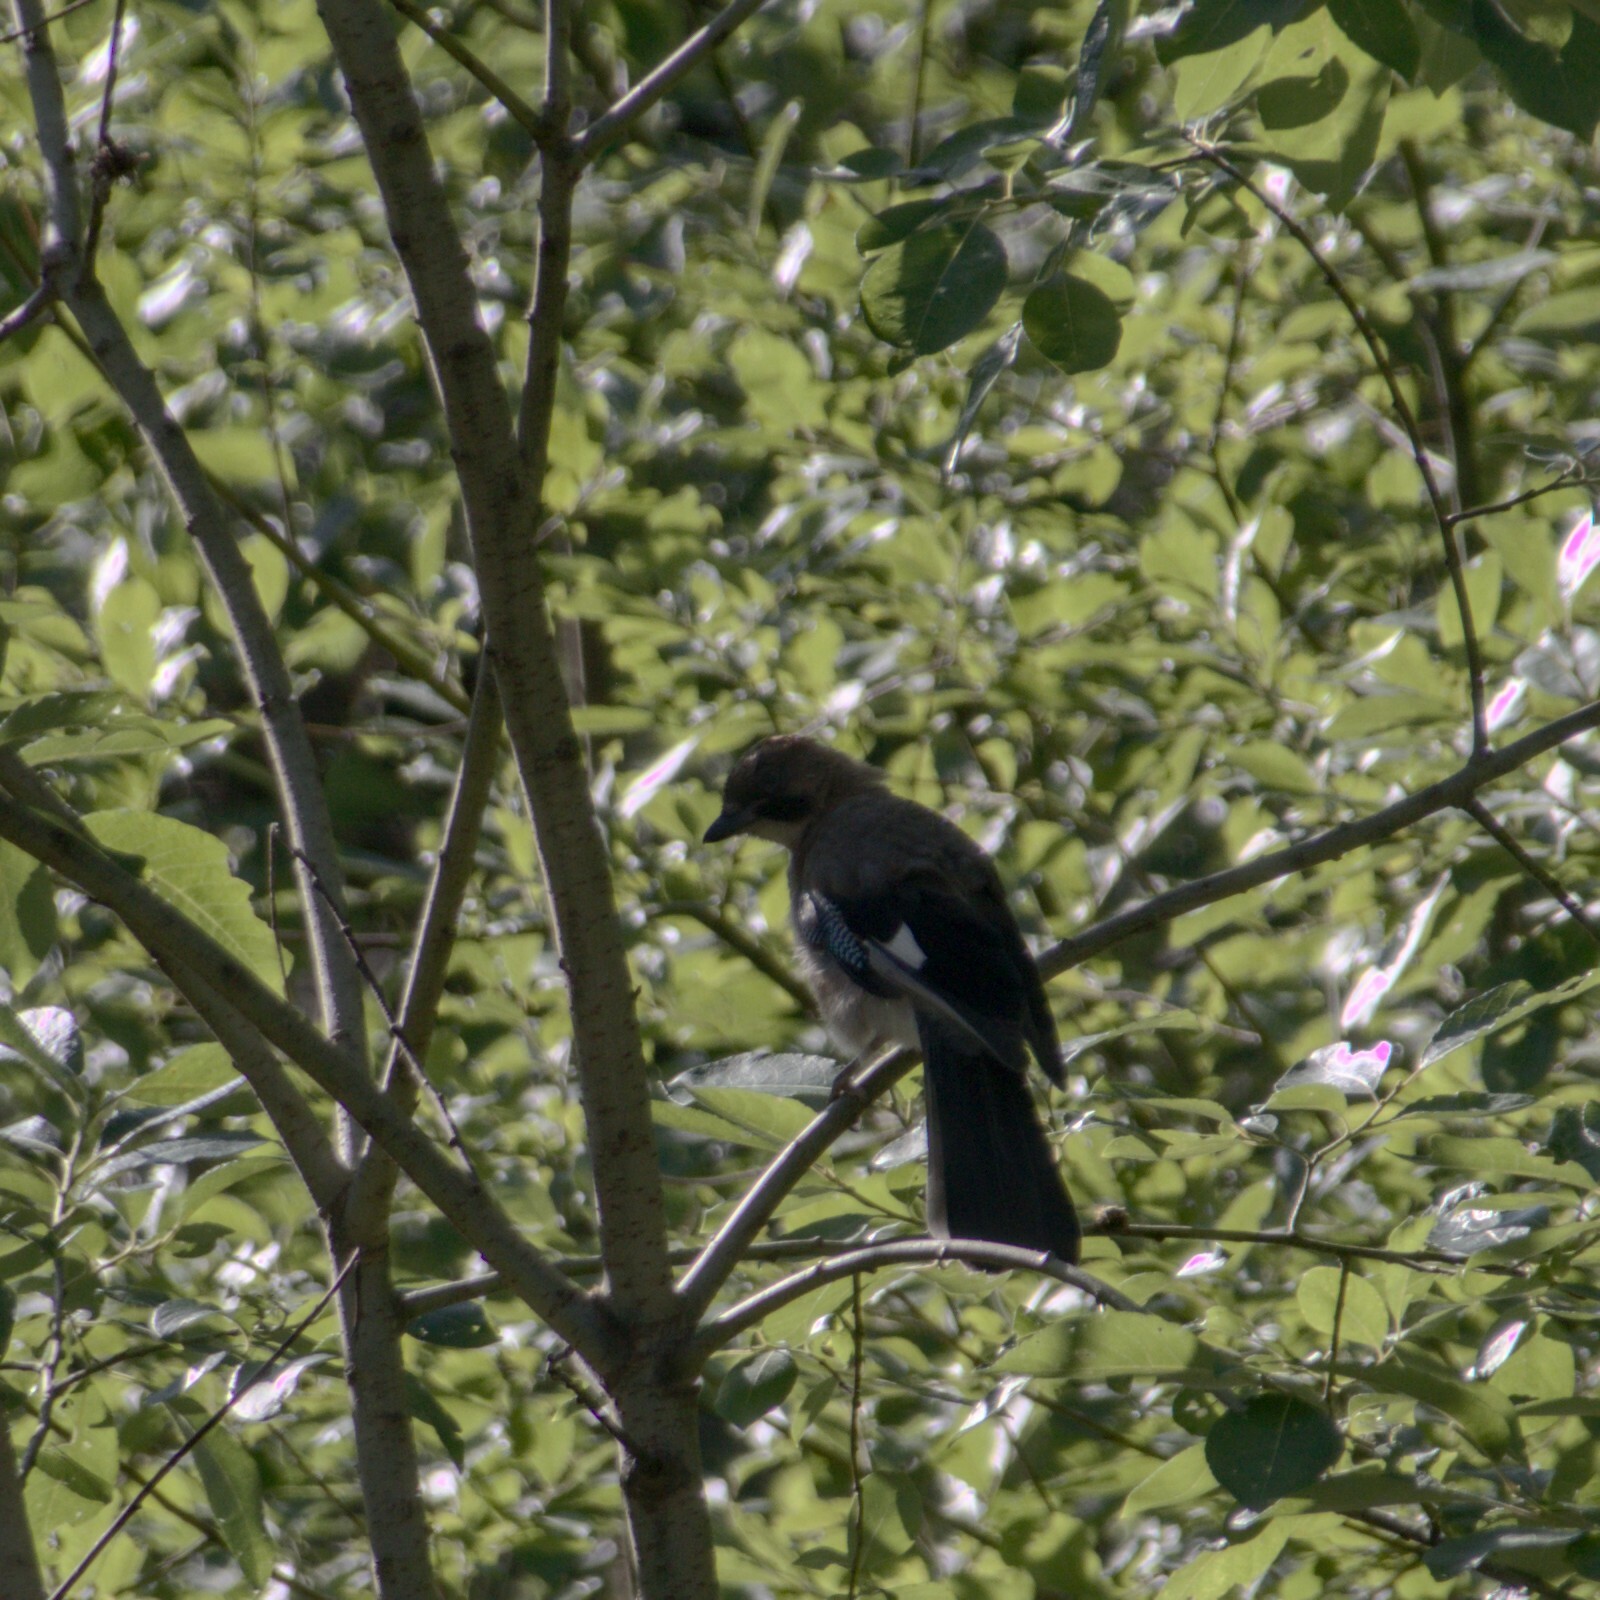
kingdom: Animalia
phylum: Chordata
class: Aves
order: Passeriformes
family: Corvidae
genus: Garrulus
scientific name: Garrulus glandarius
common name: Eurasian jay
